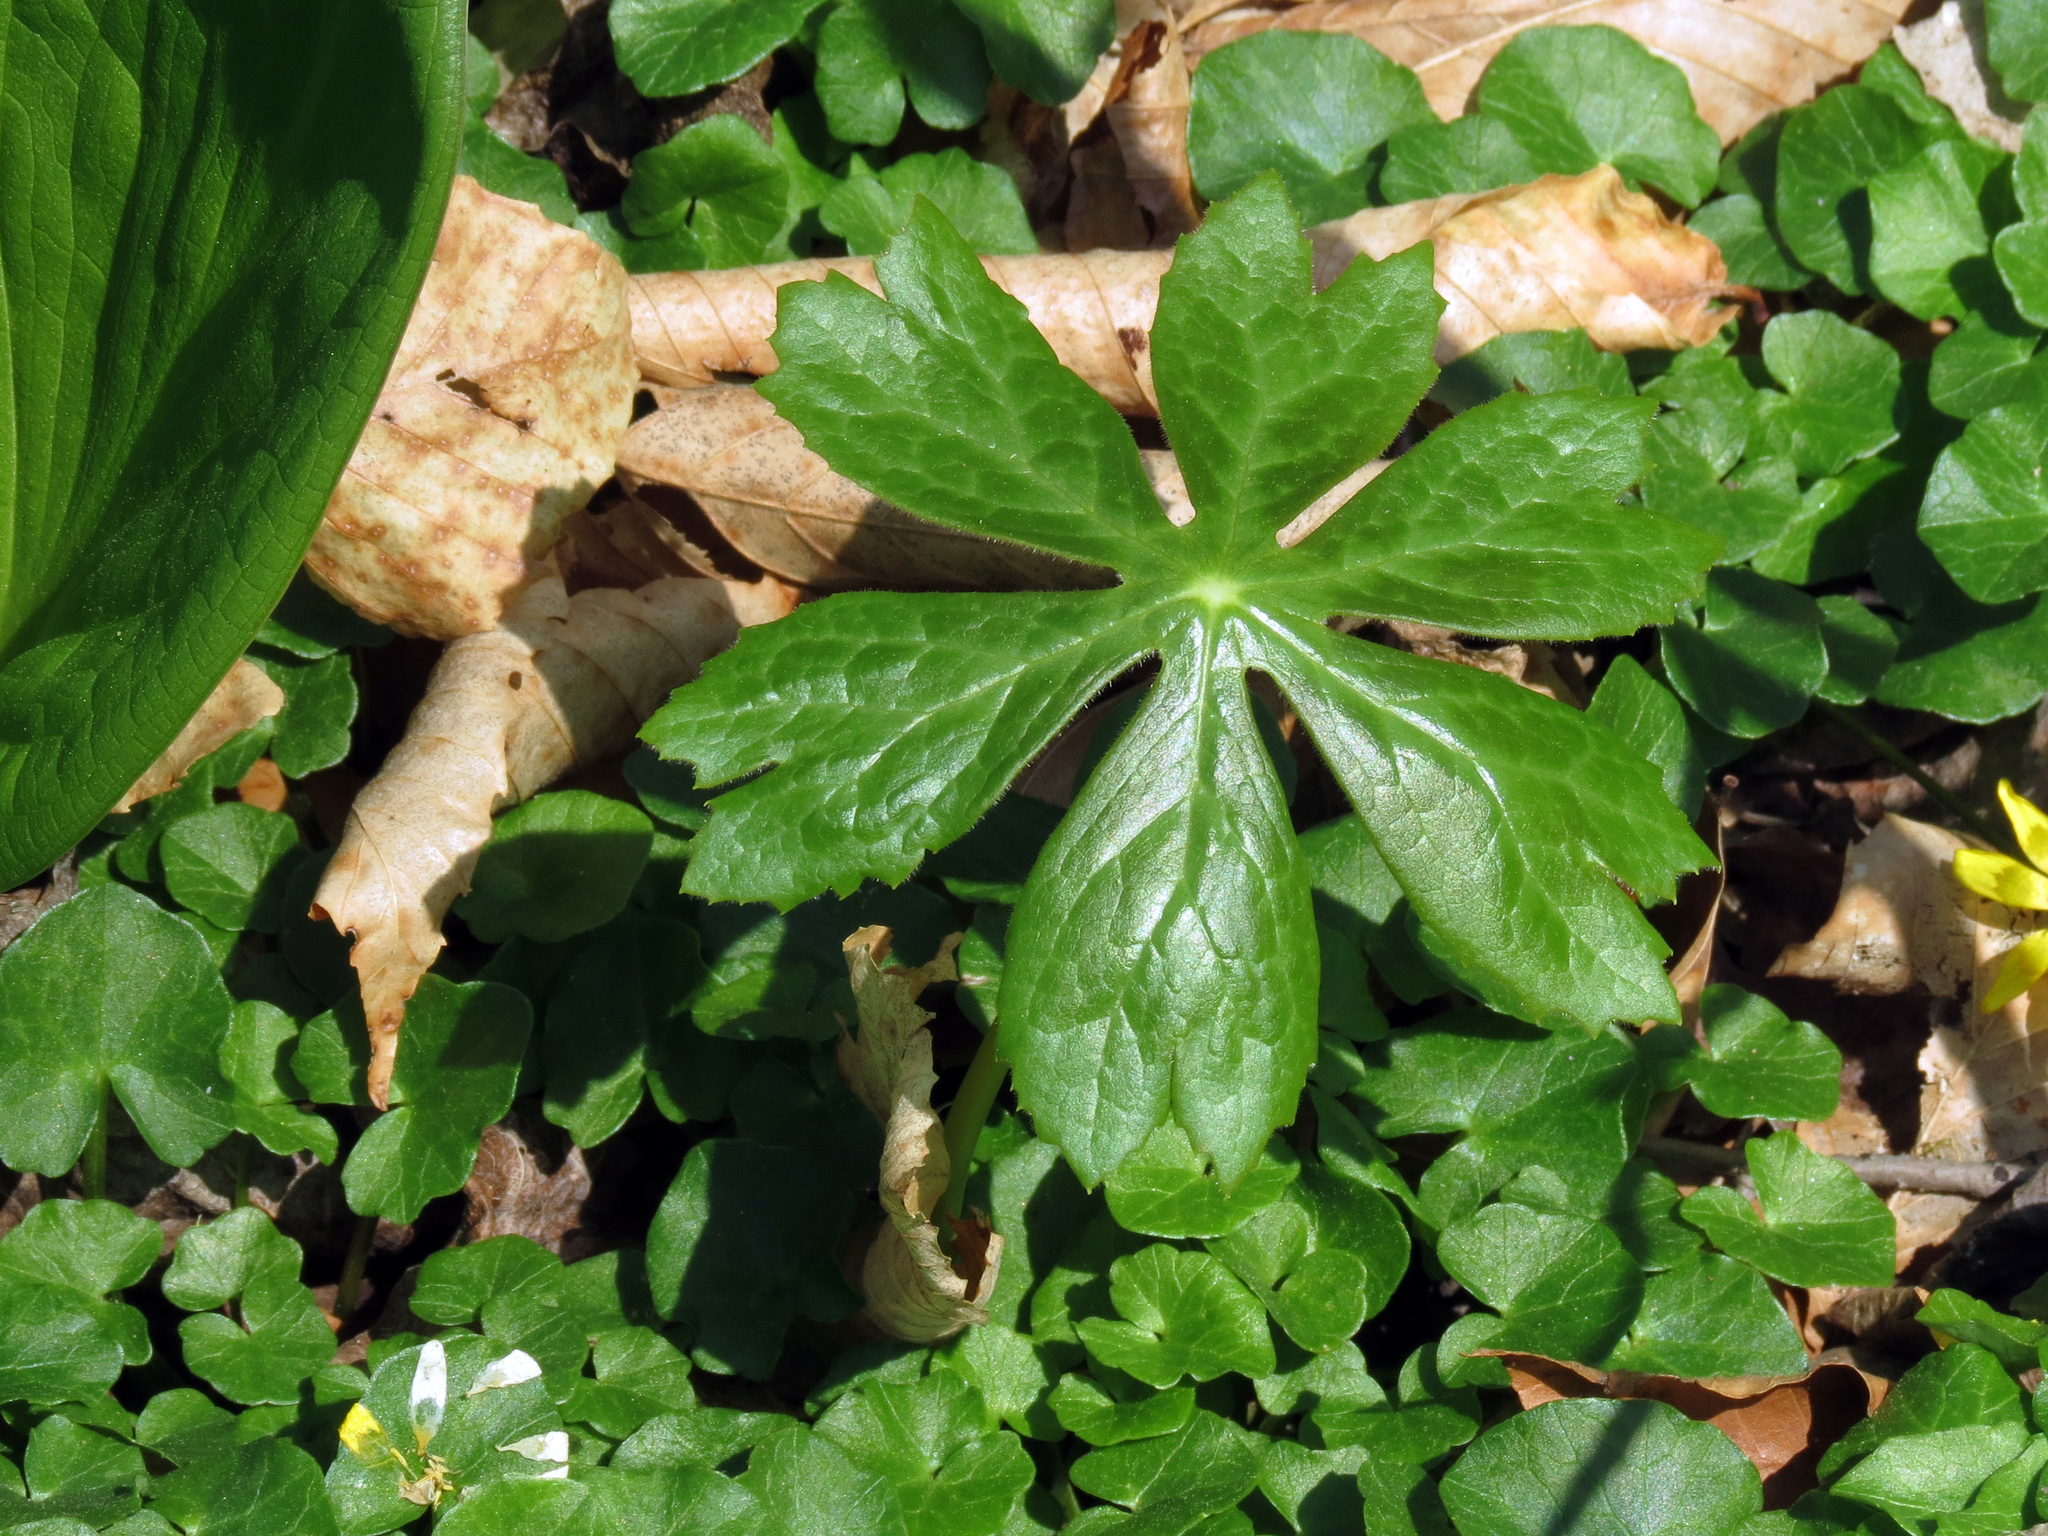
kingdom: Plantae
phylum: Tracheophyta
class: Magnoliopsida
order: Ranunculales
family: Berberidaceae
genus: Podophyllum
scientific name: Podophyllum peltatum
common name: Wild mandrake
